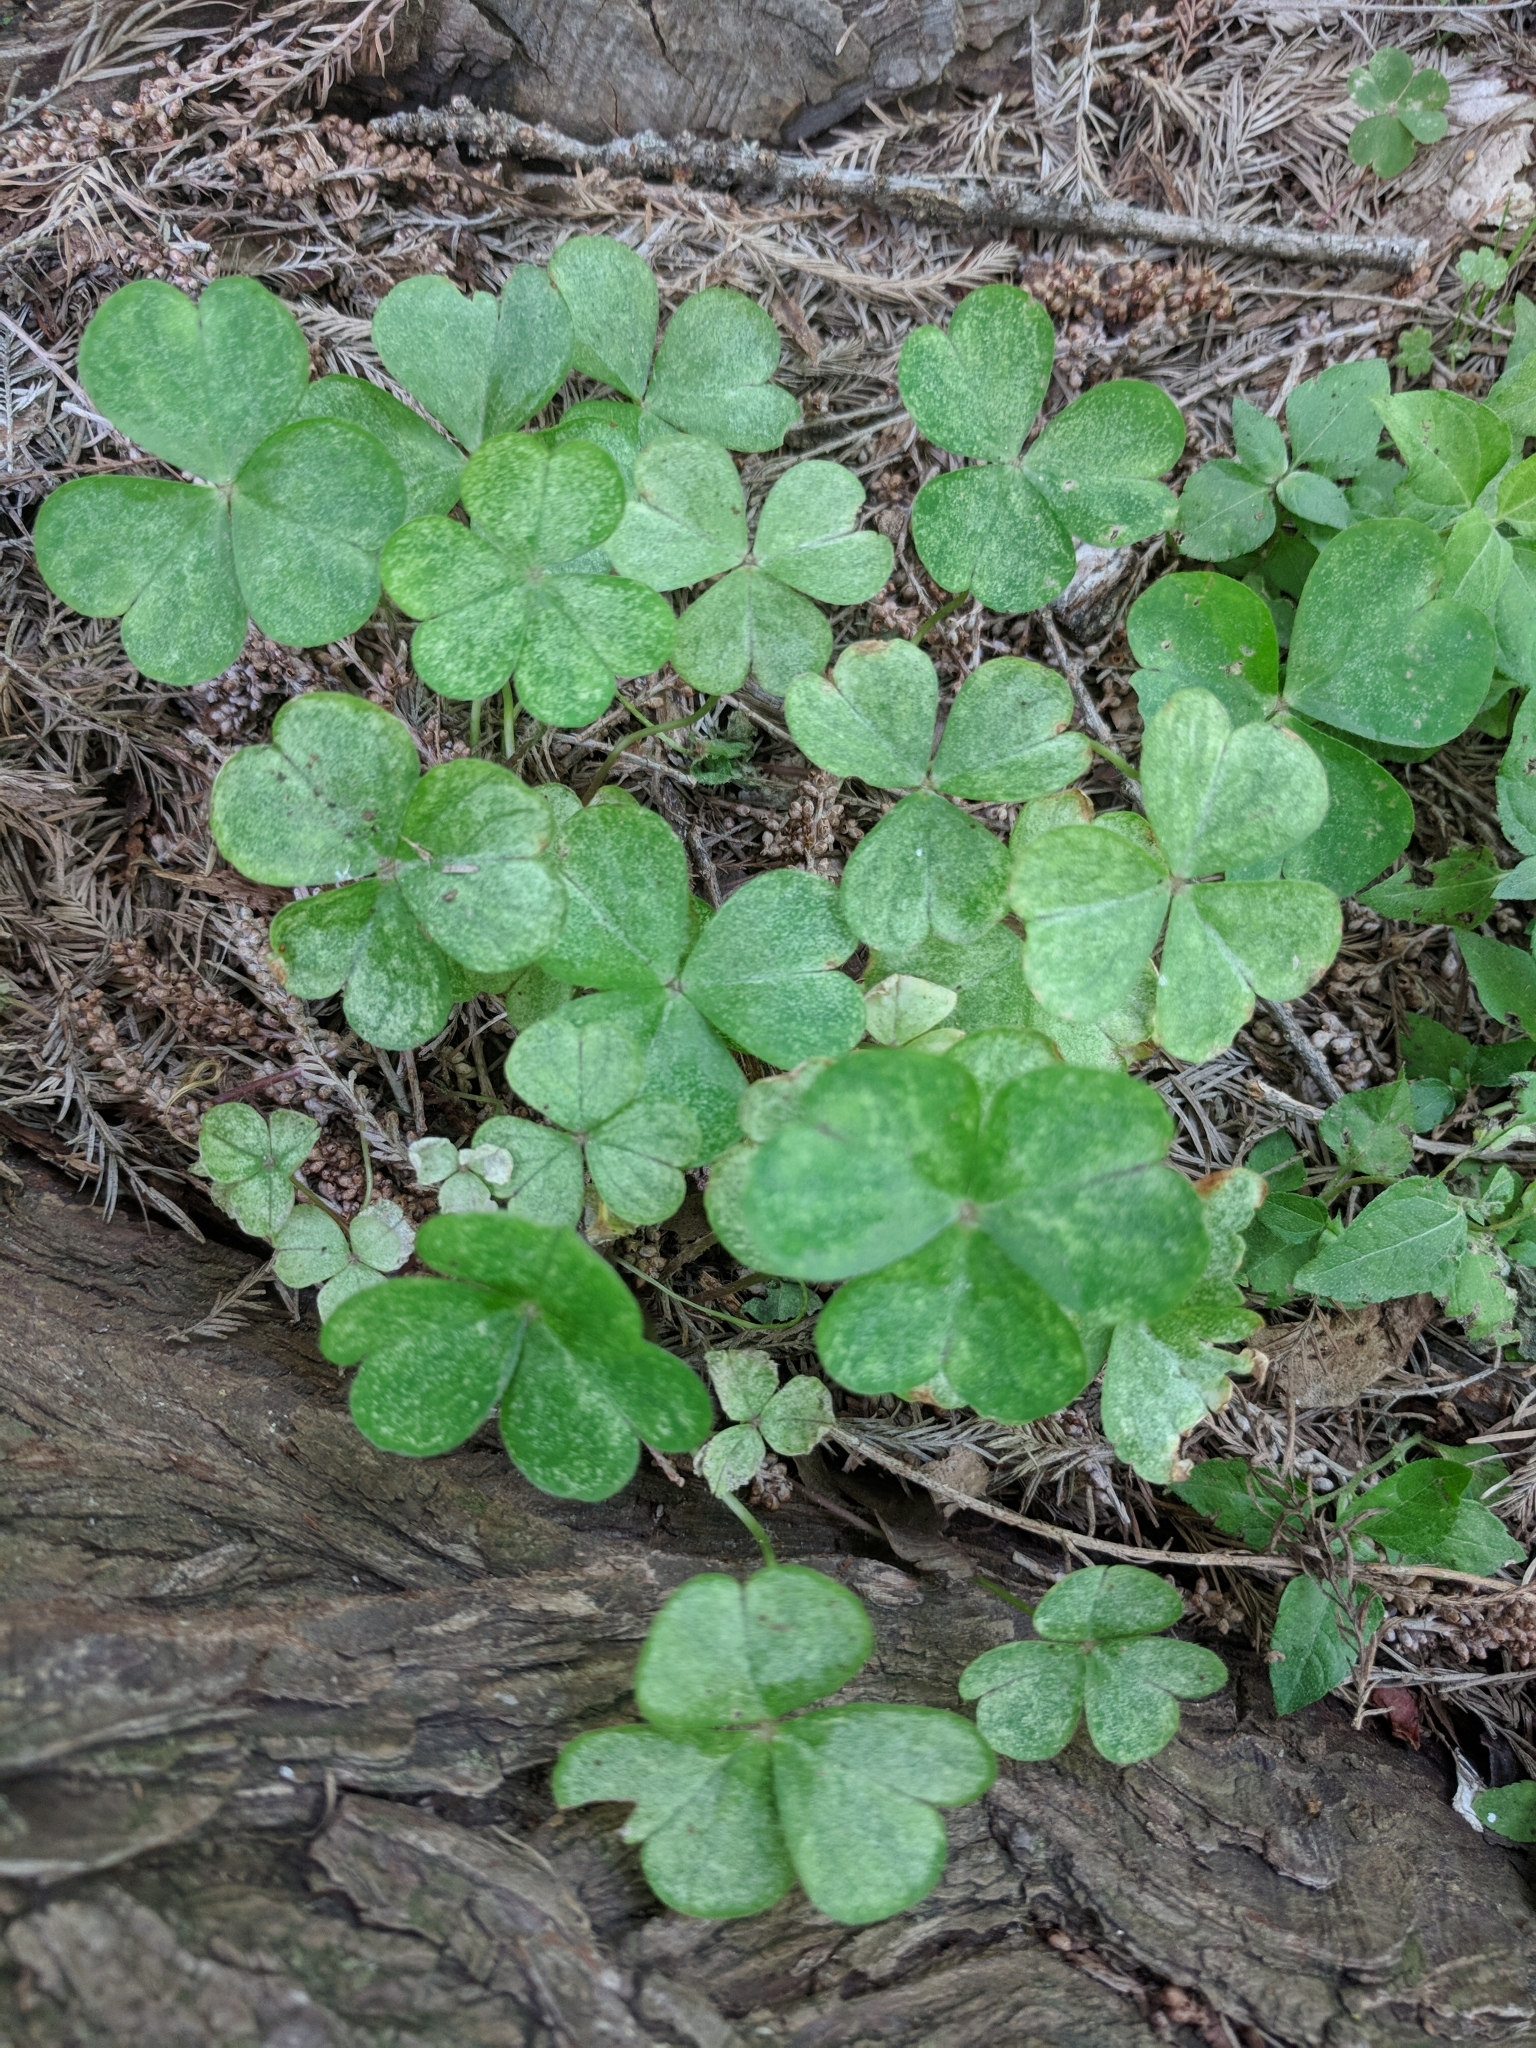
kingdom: Plantae
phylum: Tracheophyta
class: Magnoliopsida
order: Oxalidales
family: Oxalidaceae
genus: Oxalis
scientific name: Oxalis debilis
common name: Large-flowered pink-sorrel
